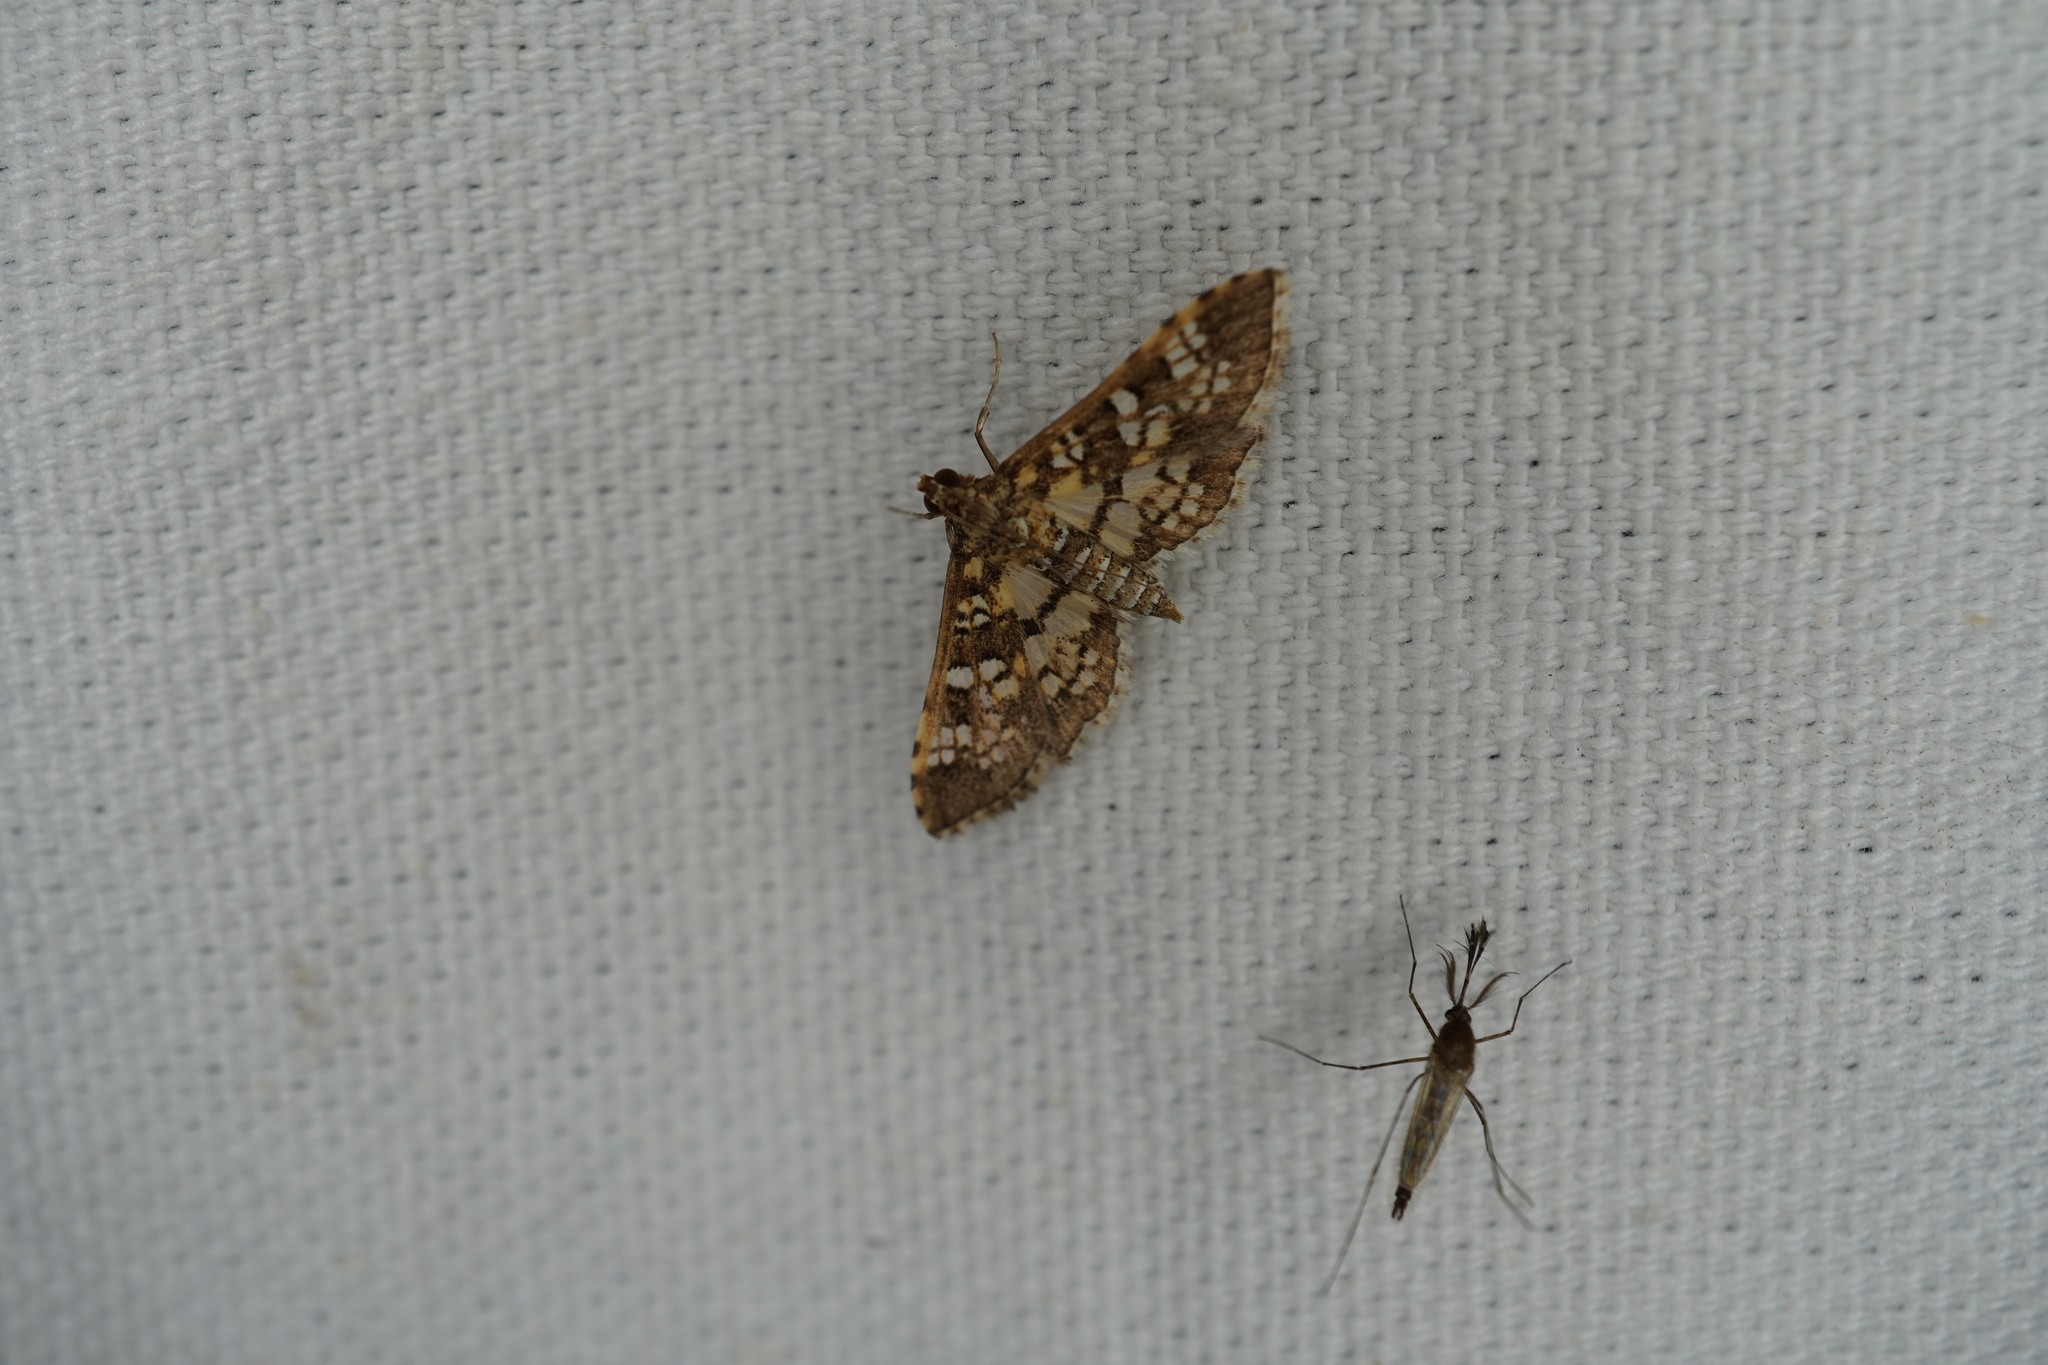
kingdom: Animalia
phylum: Arthropoda
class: Insecta
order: Lepidoptera
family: Crambidae
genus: Samea
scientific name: Samea ecclesialis
